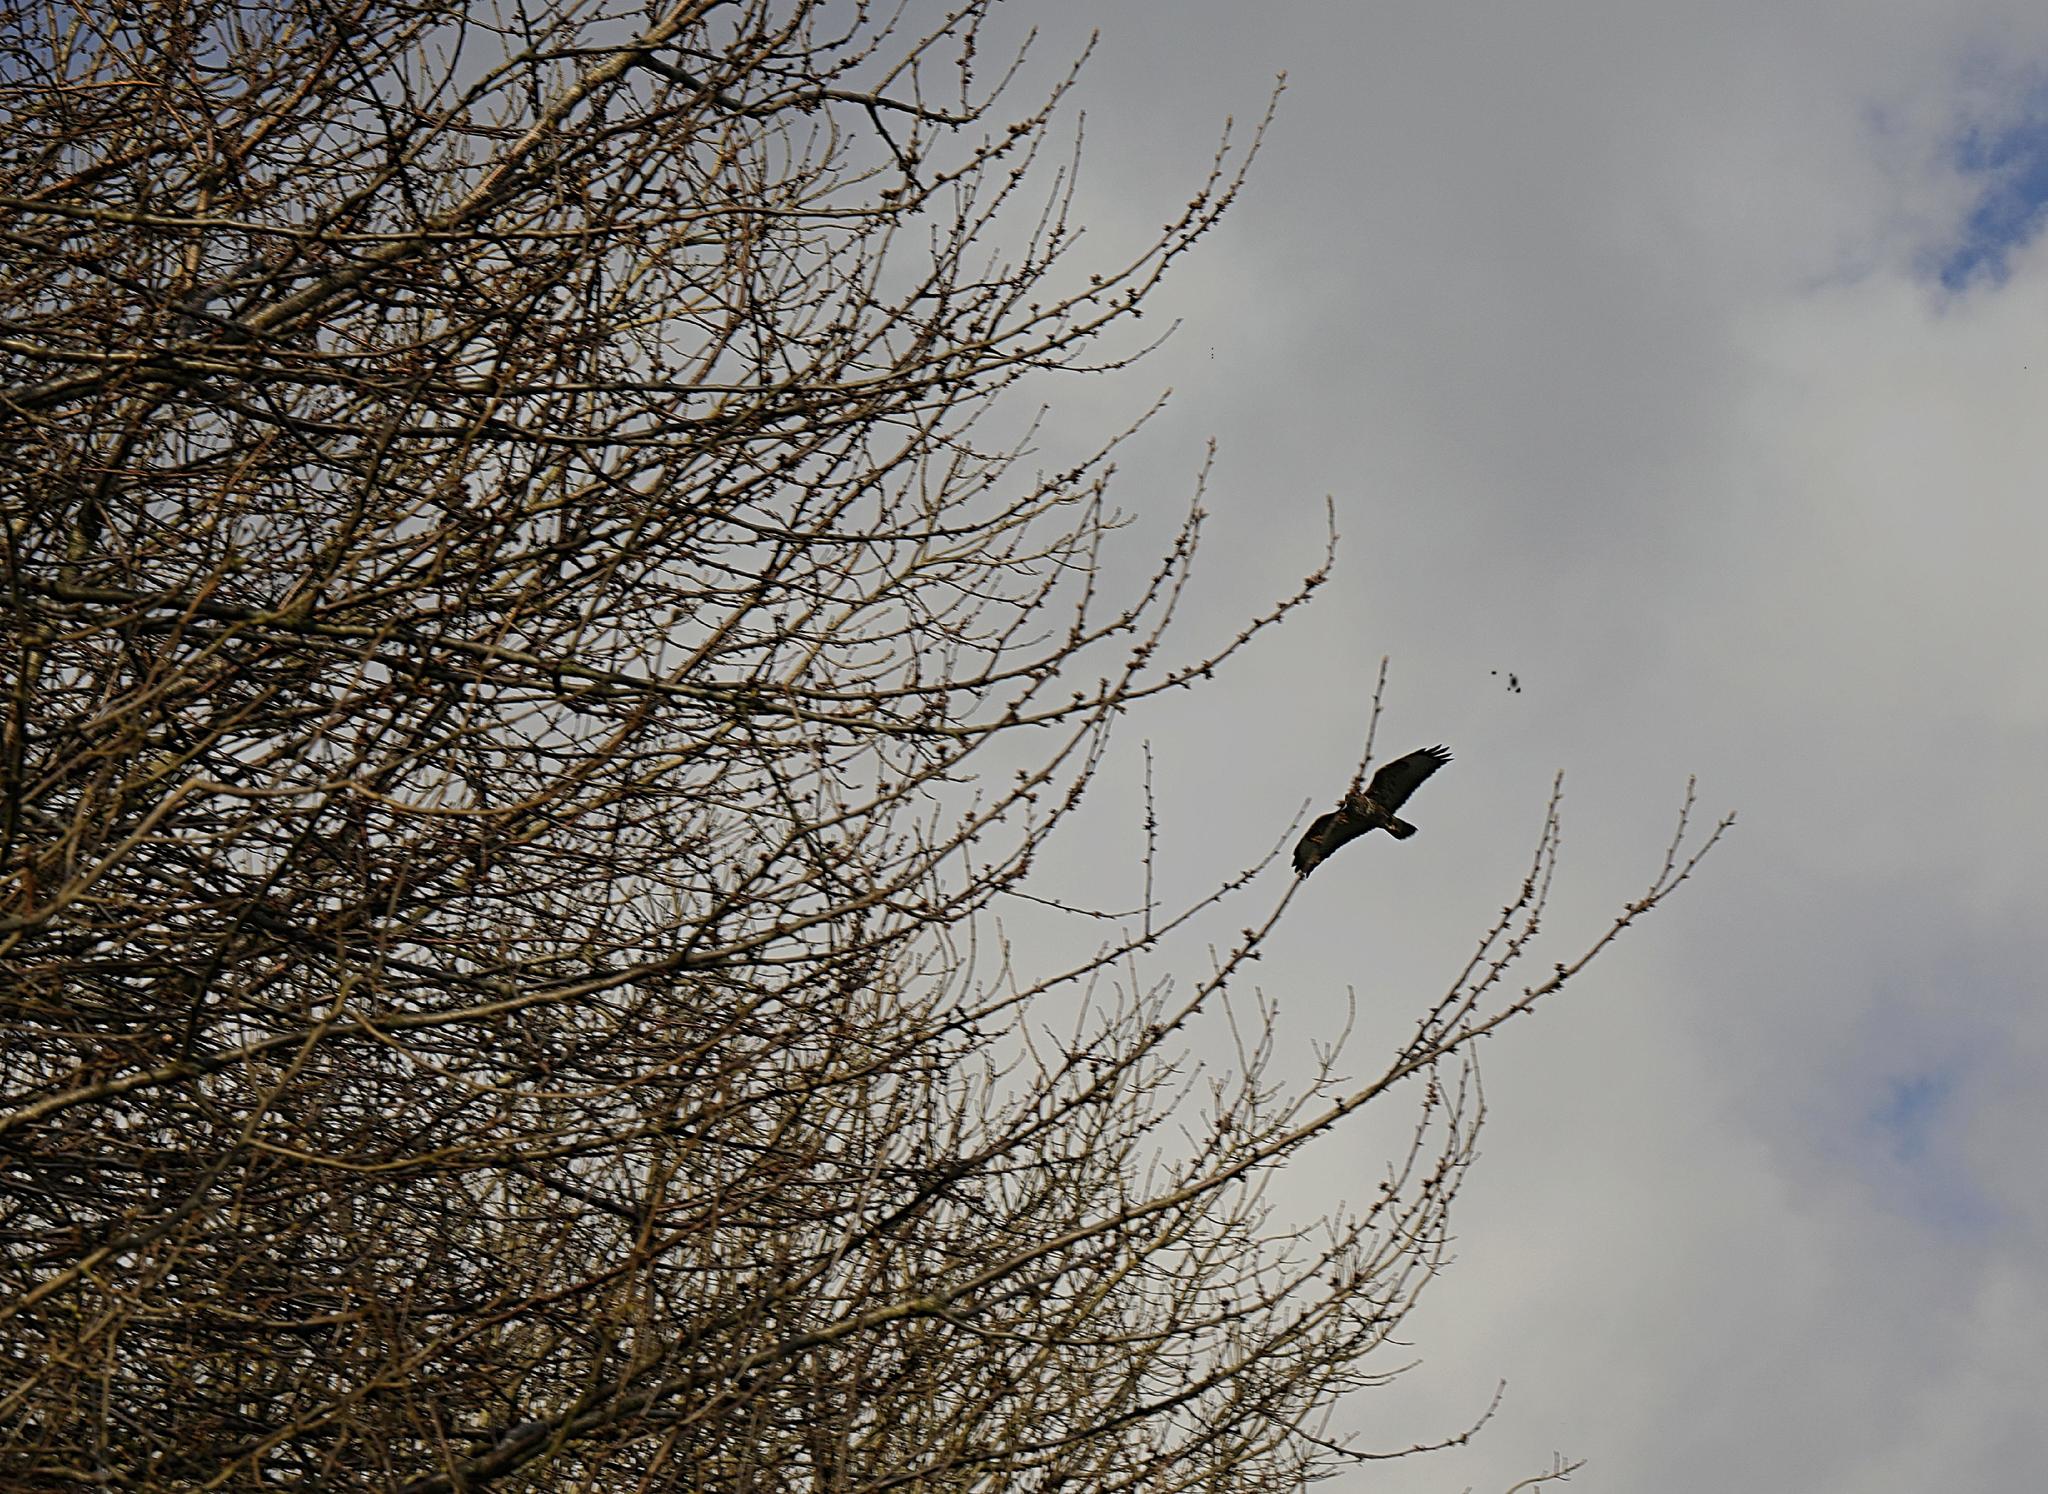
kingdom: Animalia
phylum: Chordata
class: Aves
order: Accipitriformes
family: Accipitridae
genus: Buteo
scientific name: Buteo buteo
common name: Common buzzard
